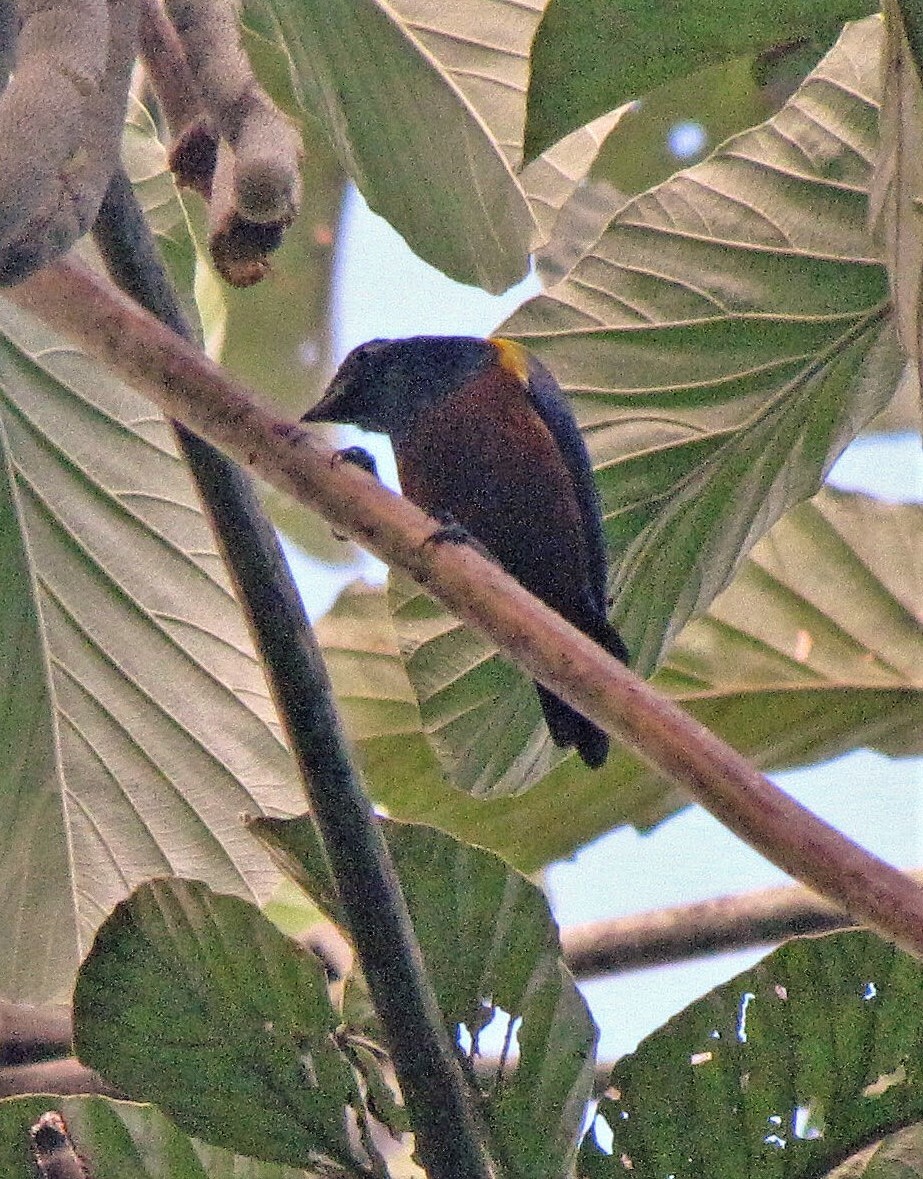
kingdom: Animalia
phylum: Chordata
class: Aves
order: Passeriformes
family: Fringillidae
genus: Euphonia
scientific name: Euphonia pectoralis
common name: Chestnut-bellied euphonia
